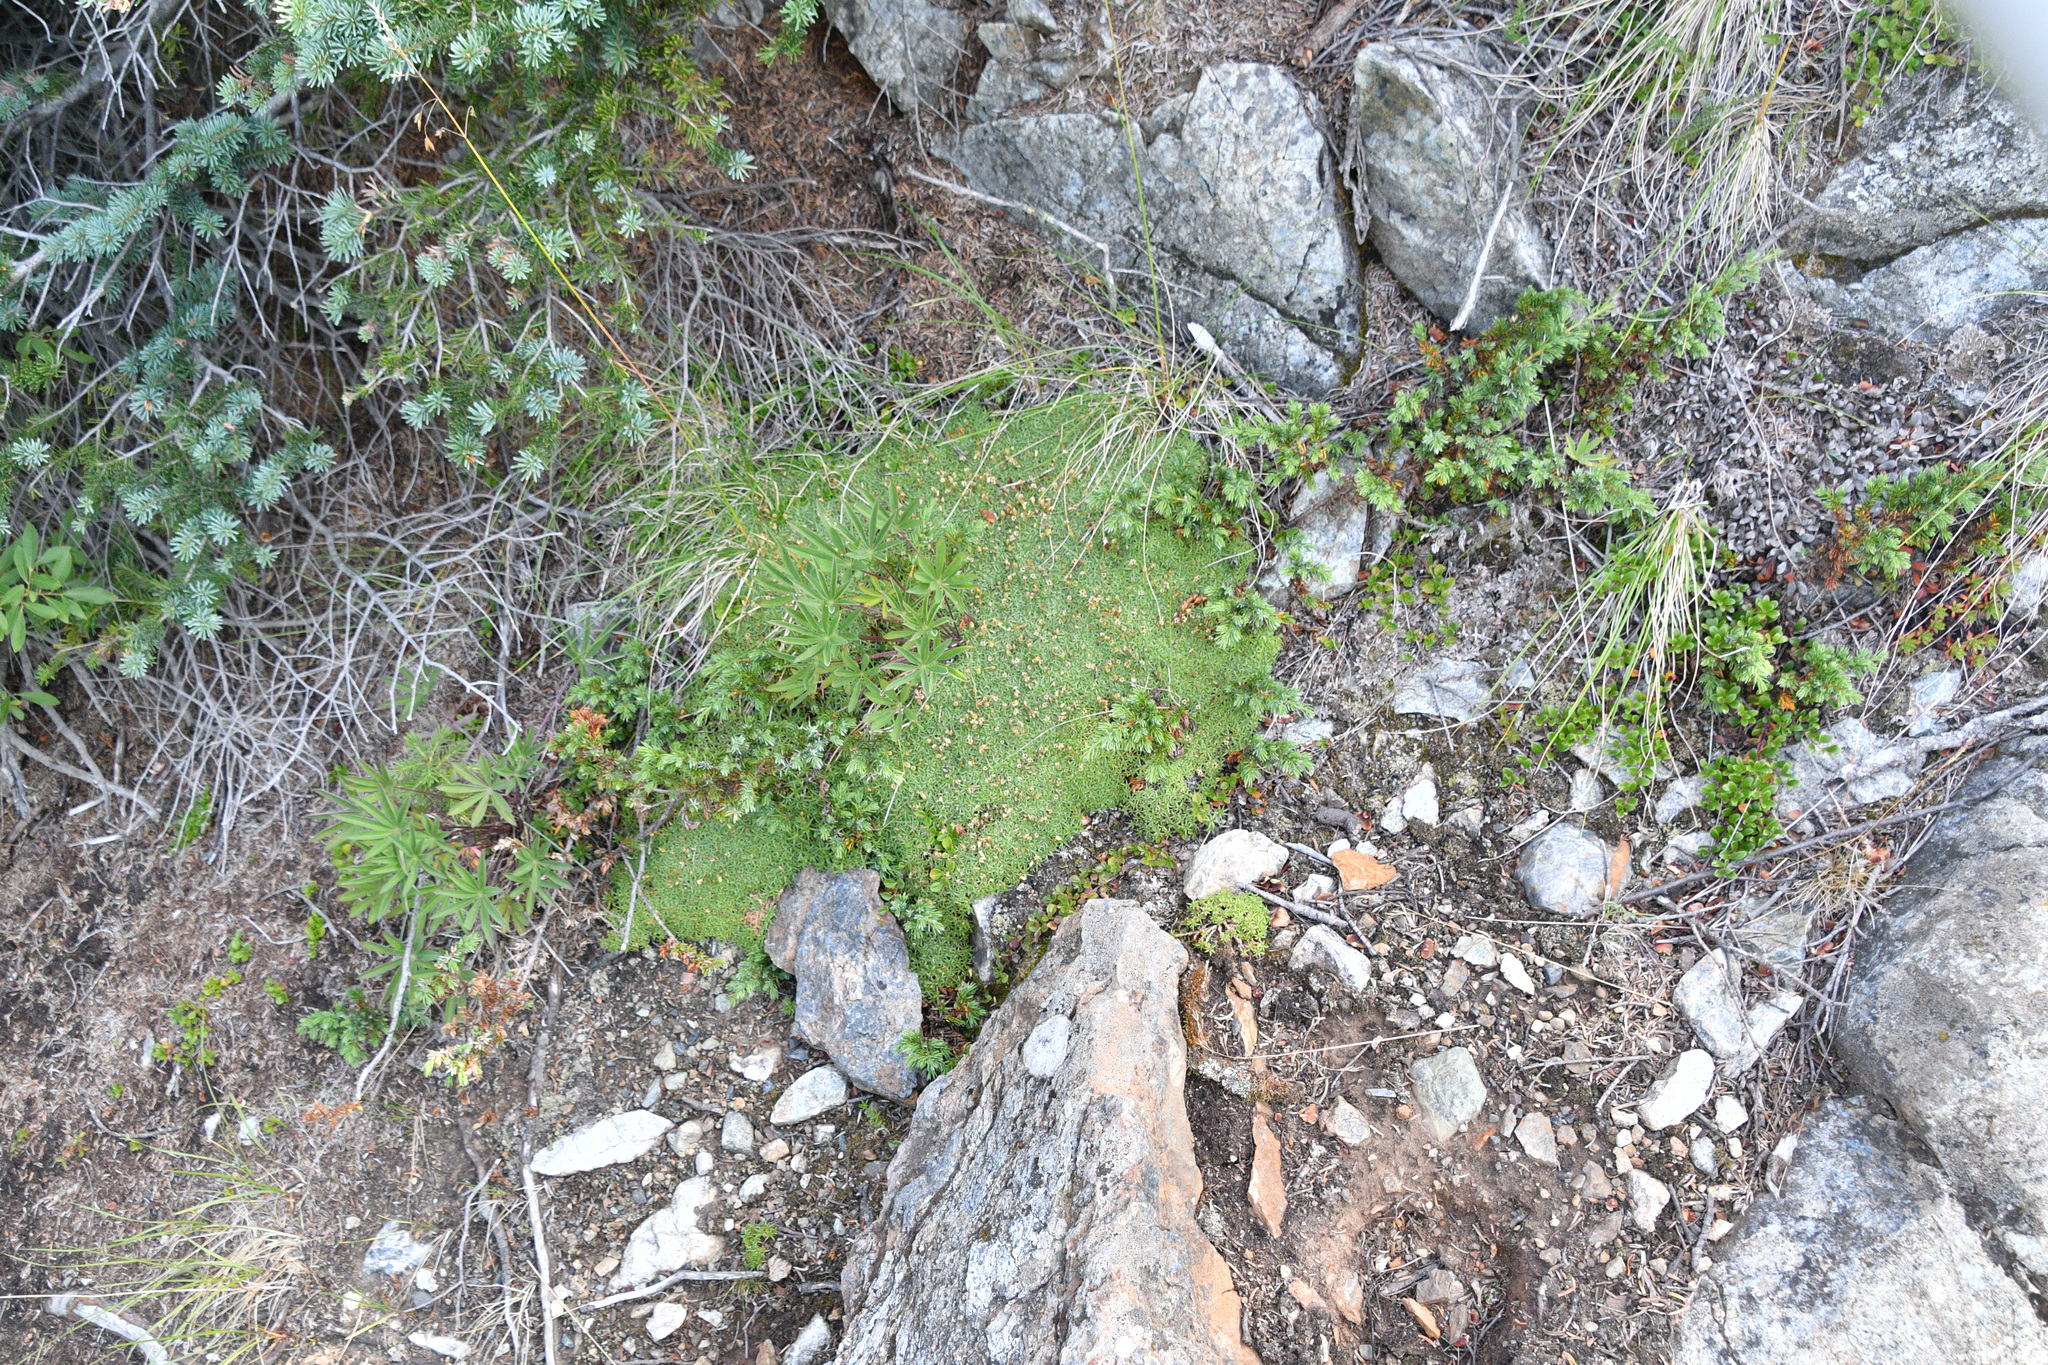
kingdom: Plantae
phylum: Tracheophyta
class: Magnoliopsida
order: Caryophyllales
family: Caryophyllaceae
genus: Silene
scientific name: Silene acaulis
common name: Moss campion
